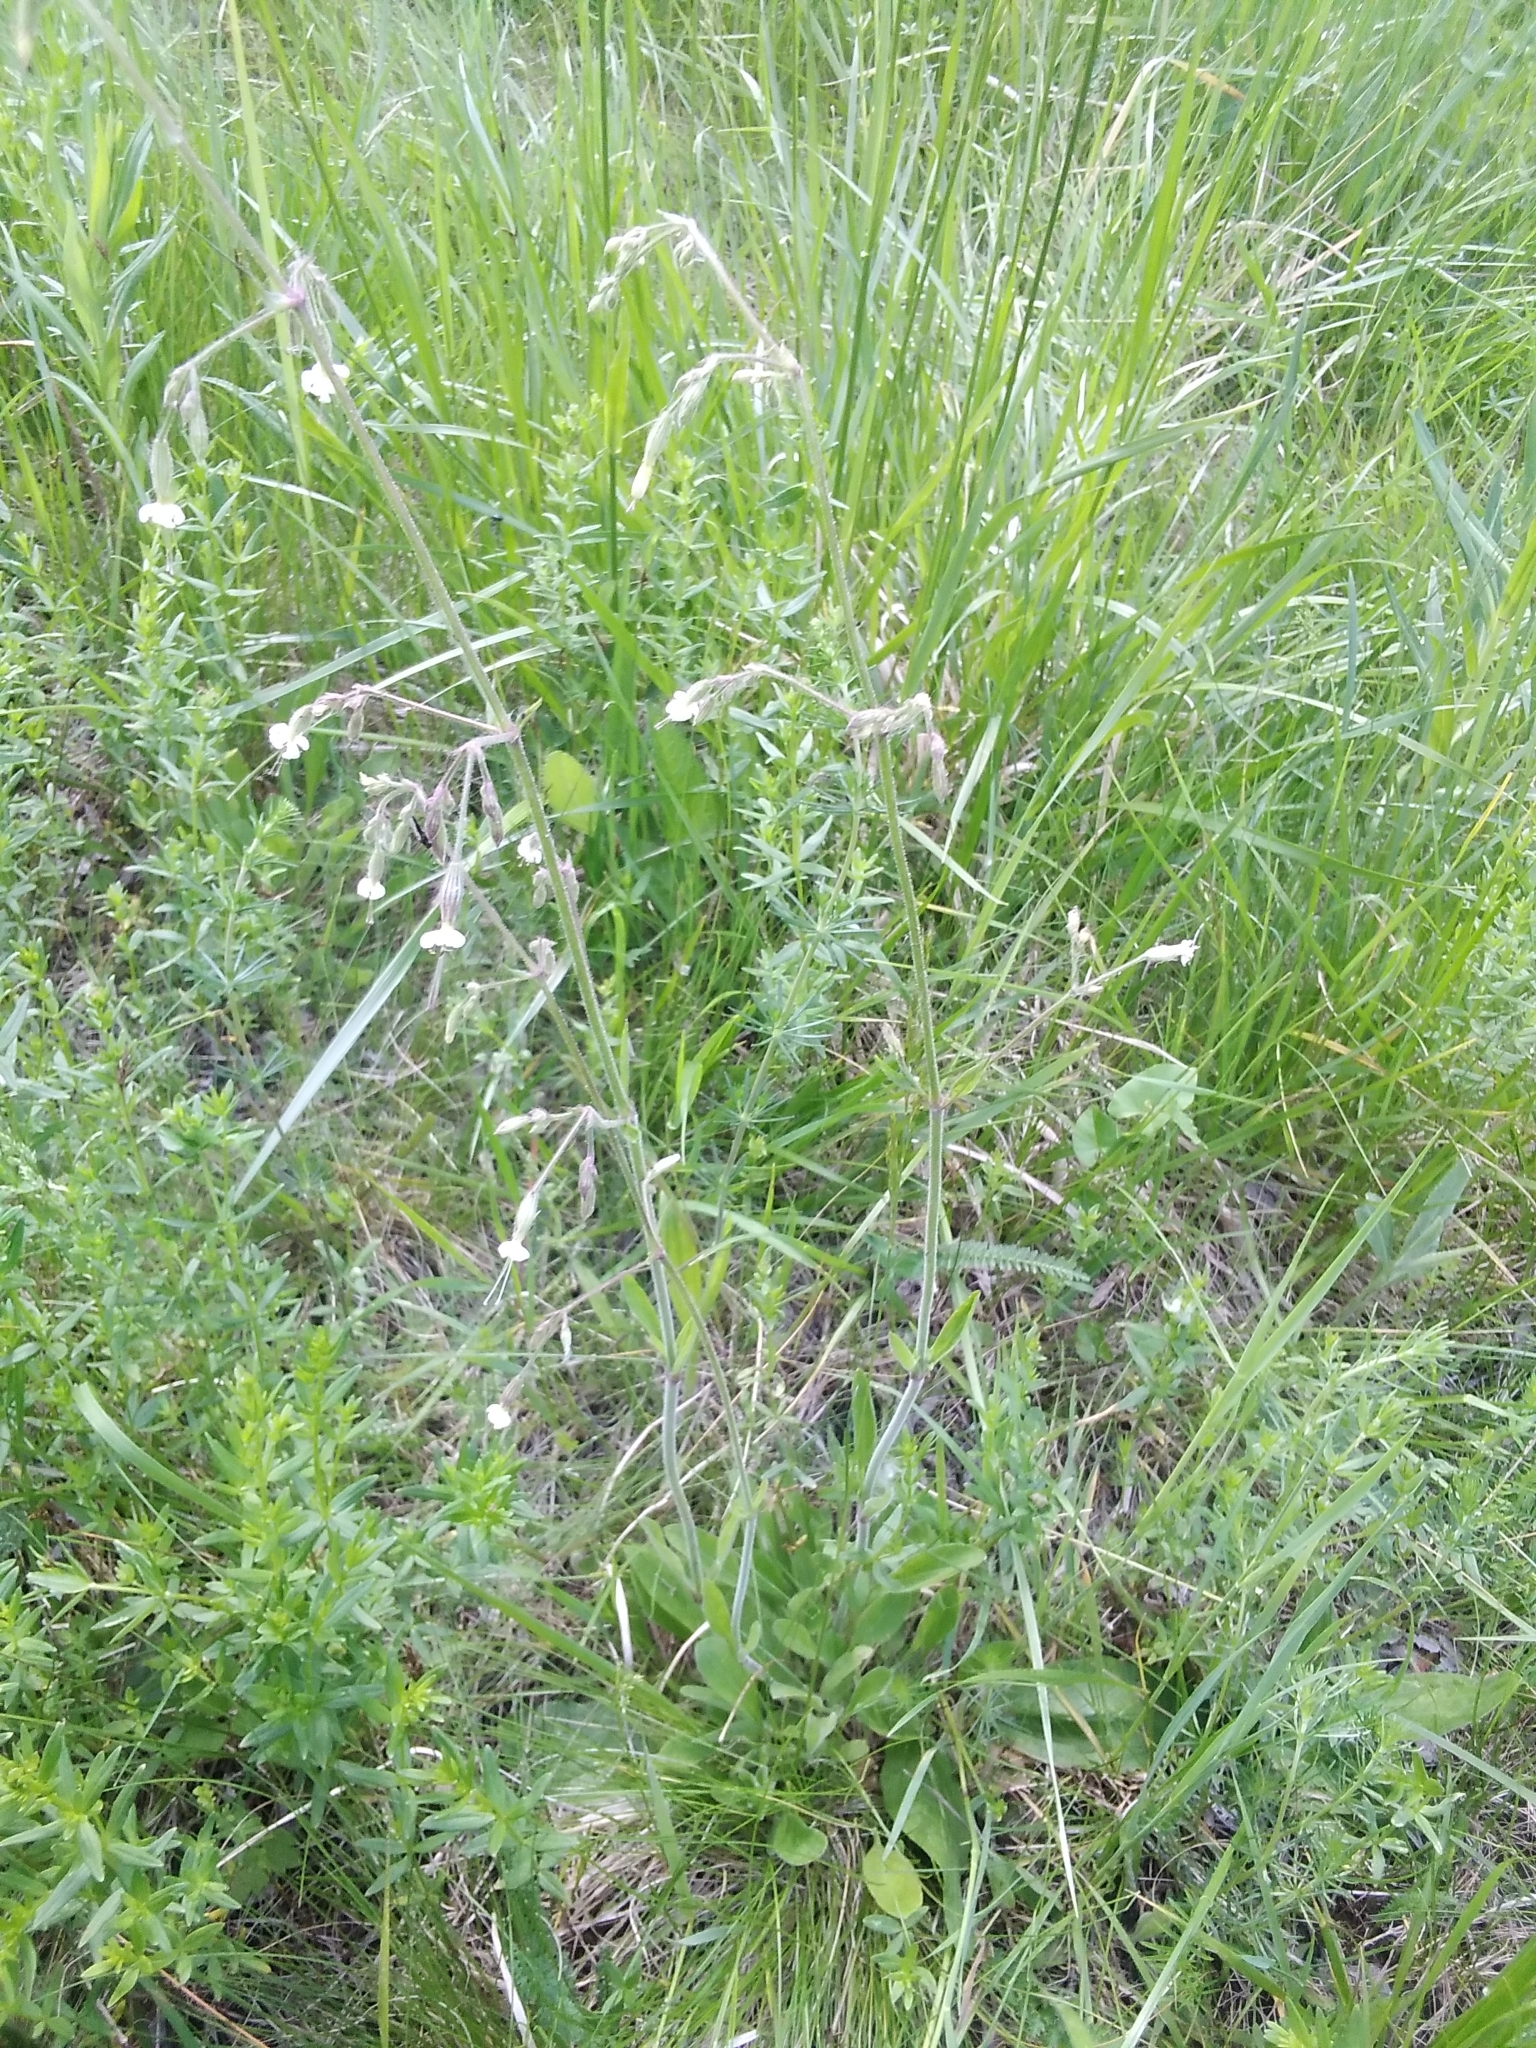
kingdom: Plantae
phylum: Tracheophyta
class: Magnoliopsida
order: Caryophyllales
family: Caryophyllaceae
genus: Silene
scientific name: Silene nutans
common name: Nottingham catchfly
